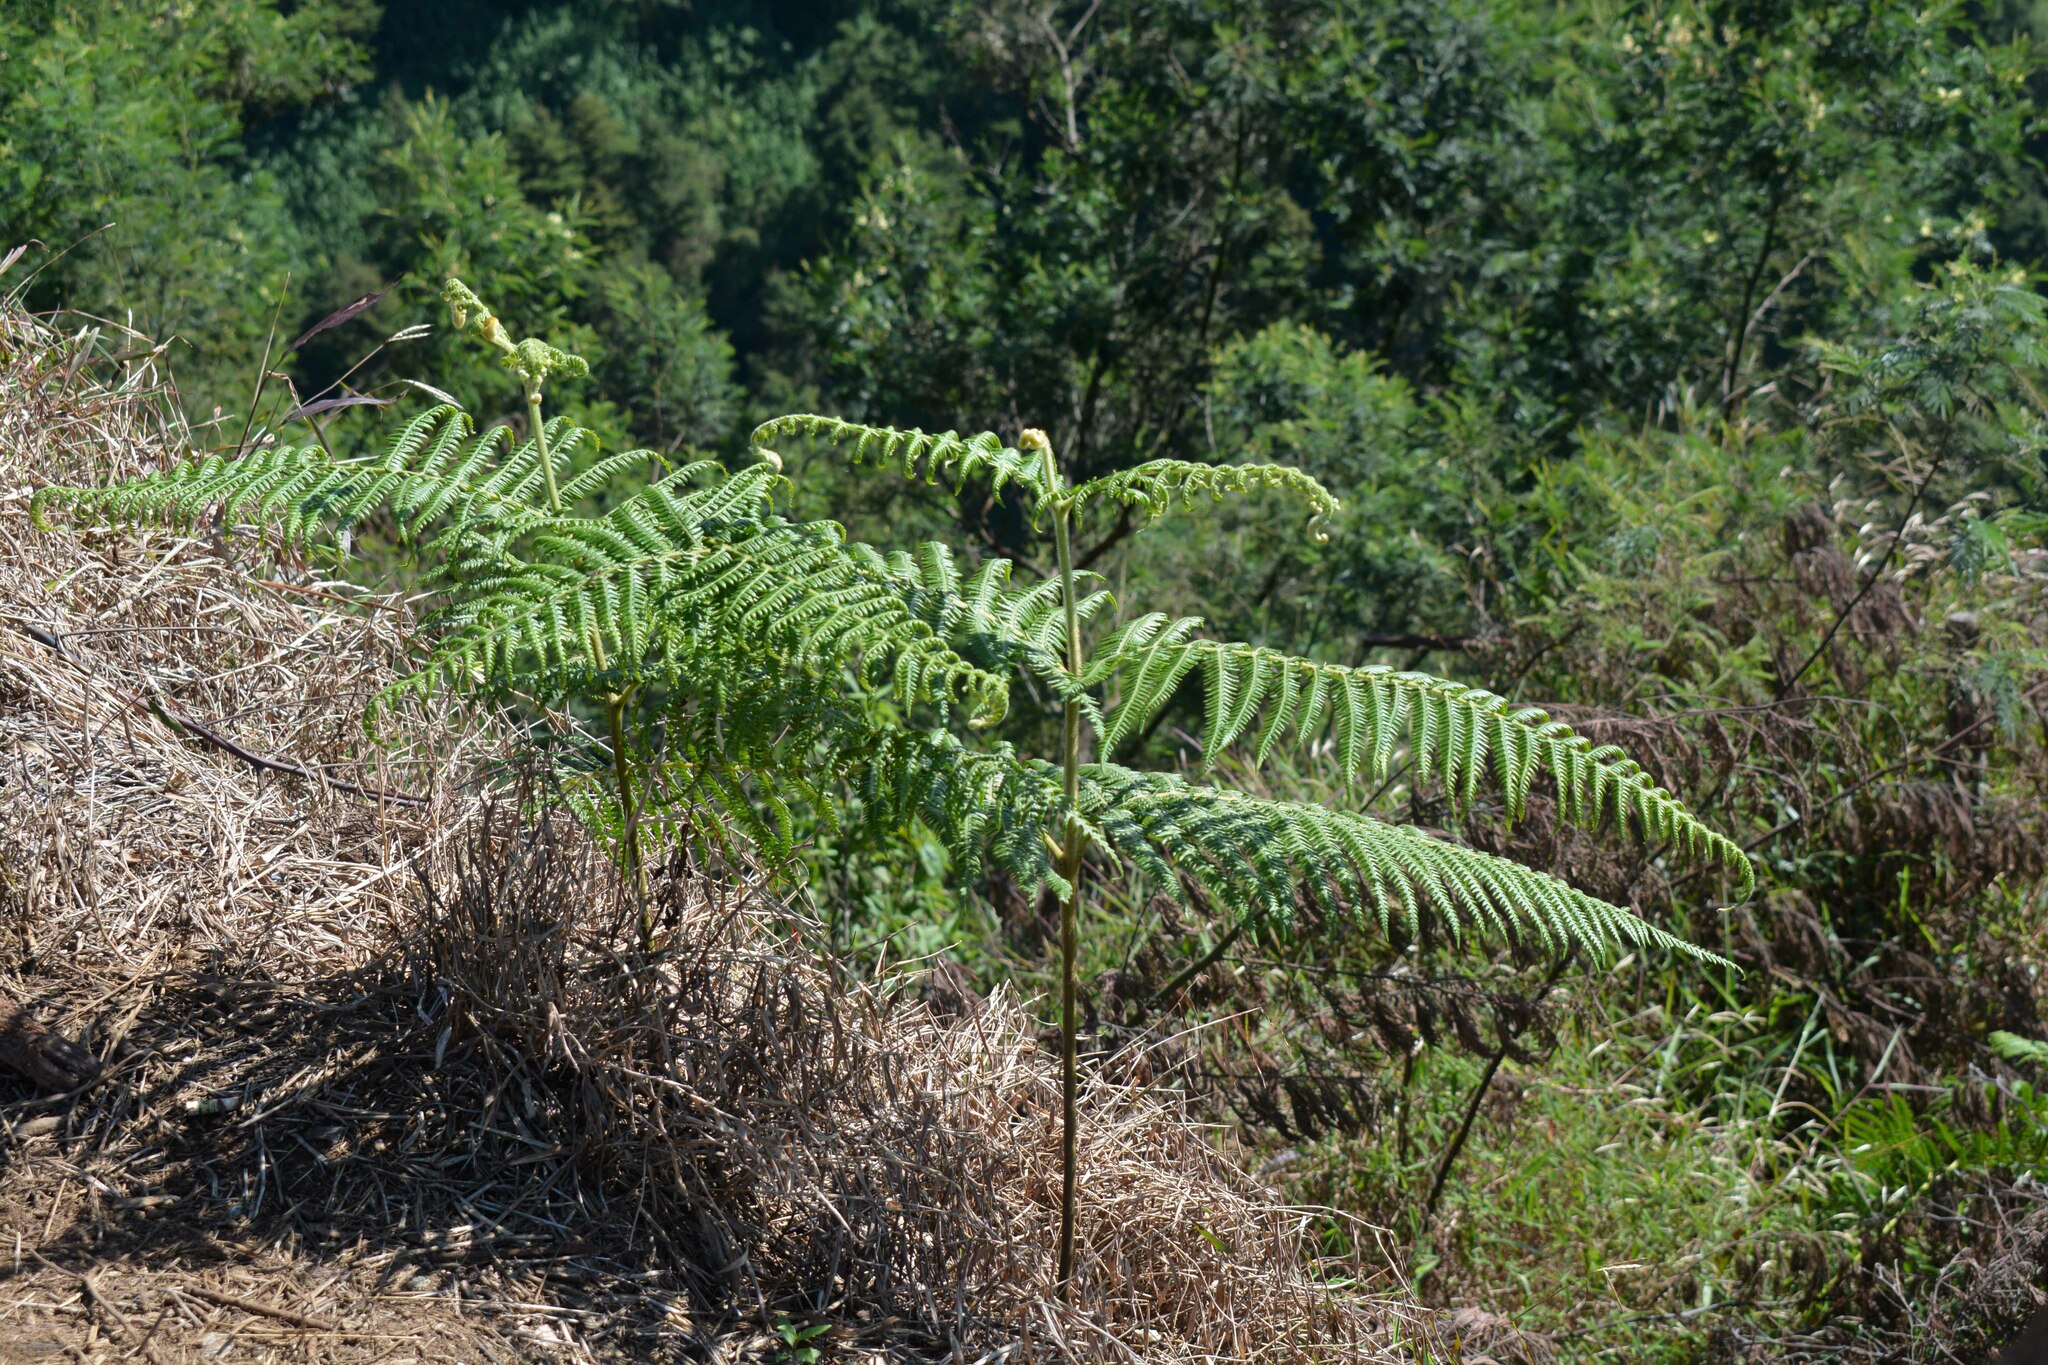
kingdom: Plantae
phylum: Tracheophyta
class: Polypodiopsida
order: Polypodiales
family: Dennstaedtiaceae
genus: Pteridium
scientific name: Pteridium aquilinum
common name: Bracken
